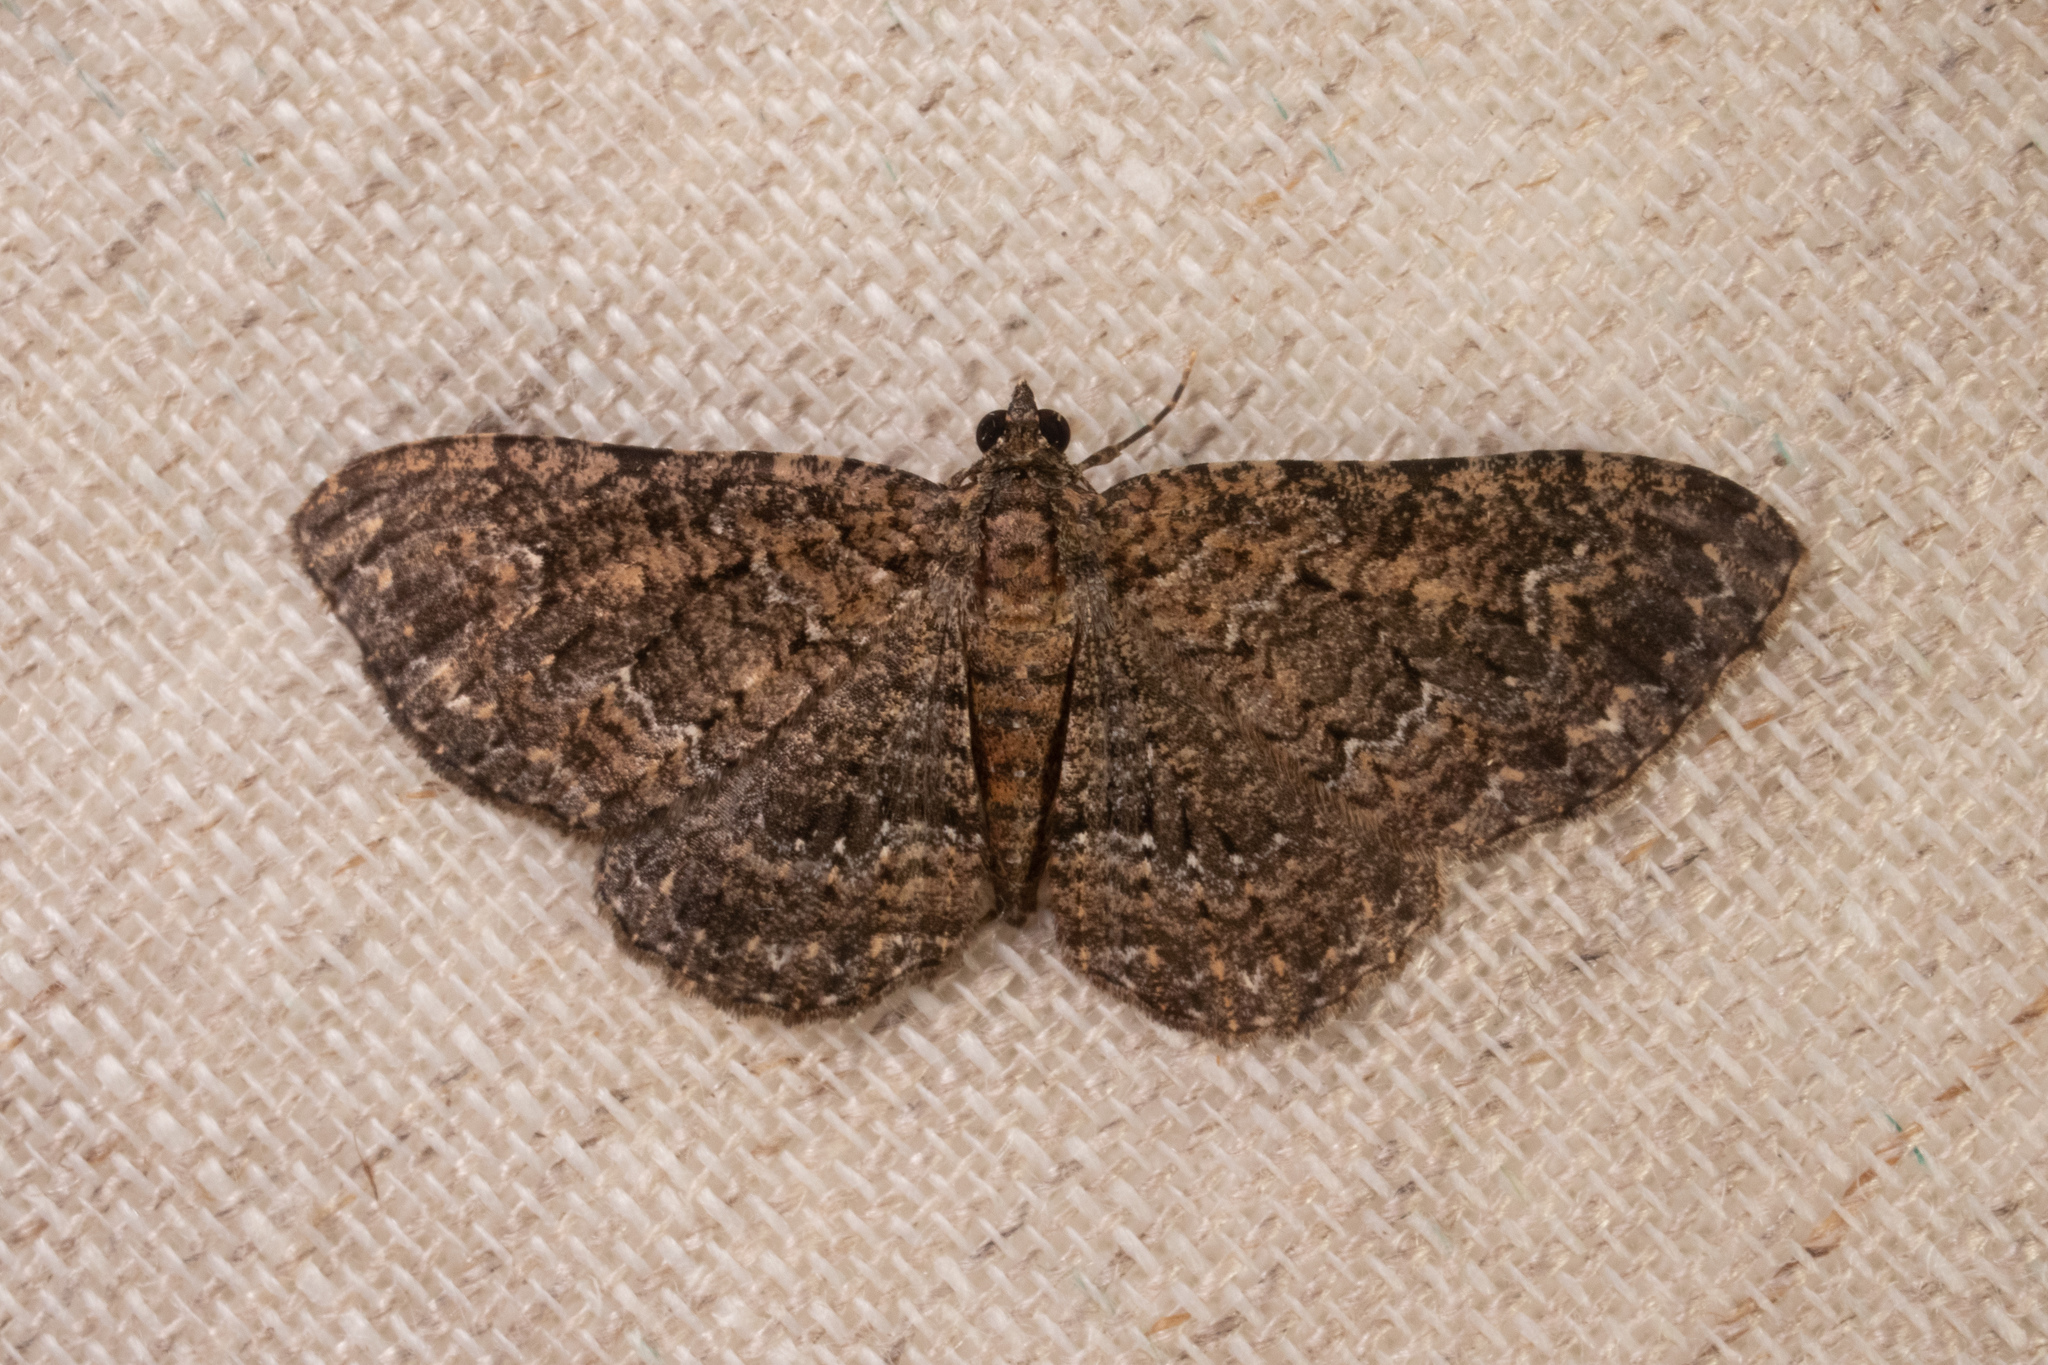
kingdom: Animalia
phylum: Arthropoda
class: Insecta
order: Lepidoptera
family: Geometridae
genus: Disclisioprocta
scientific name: Disclisioprocta stellata
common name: Somber carpet
